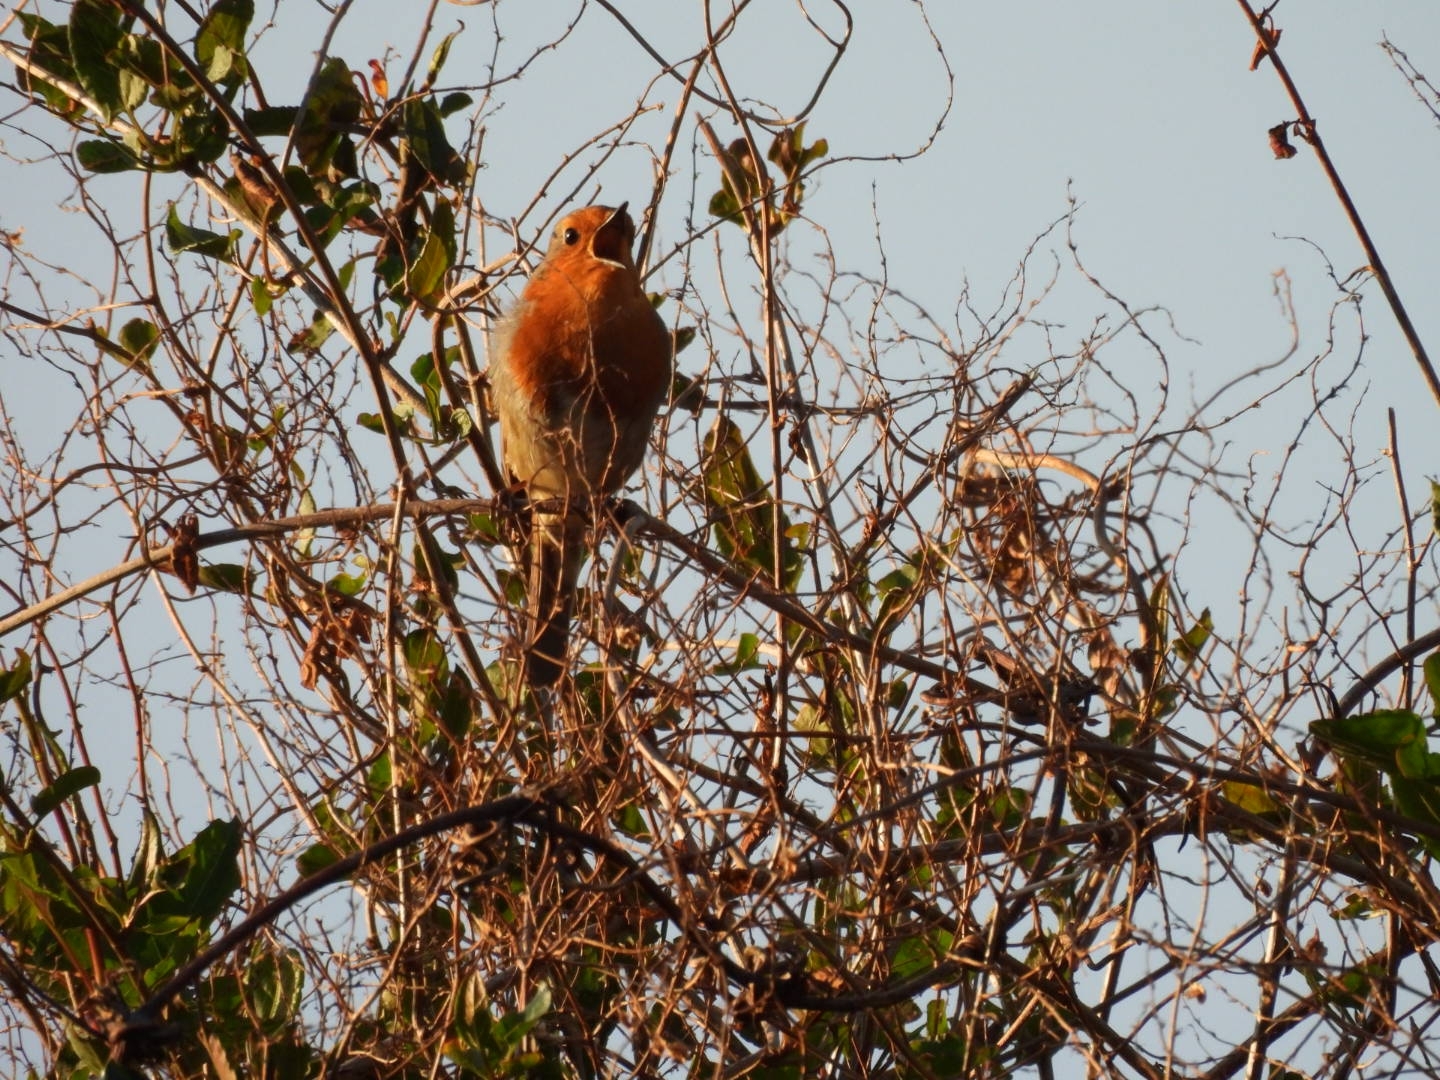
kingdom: Animalia
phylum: Chordata
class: Aves
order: Passeriformes
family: Muscicapidae
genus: Erithacus
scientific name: Erithacus rubecula
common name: European robin
